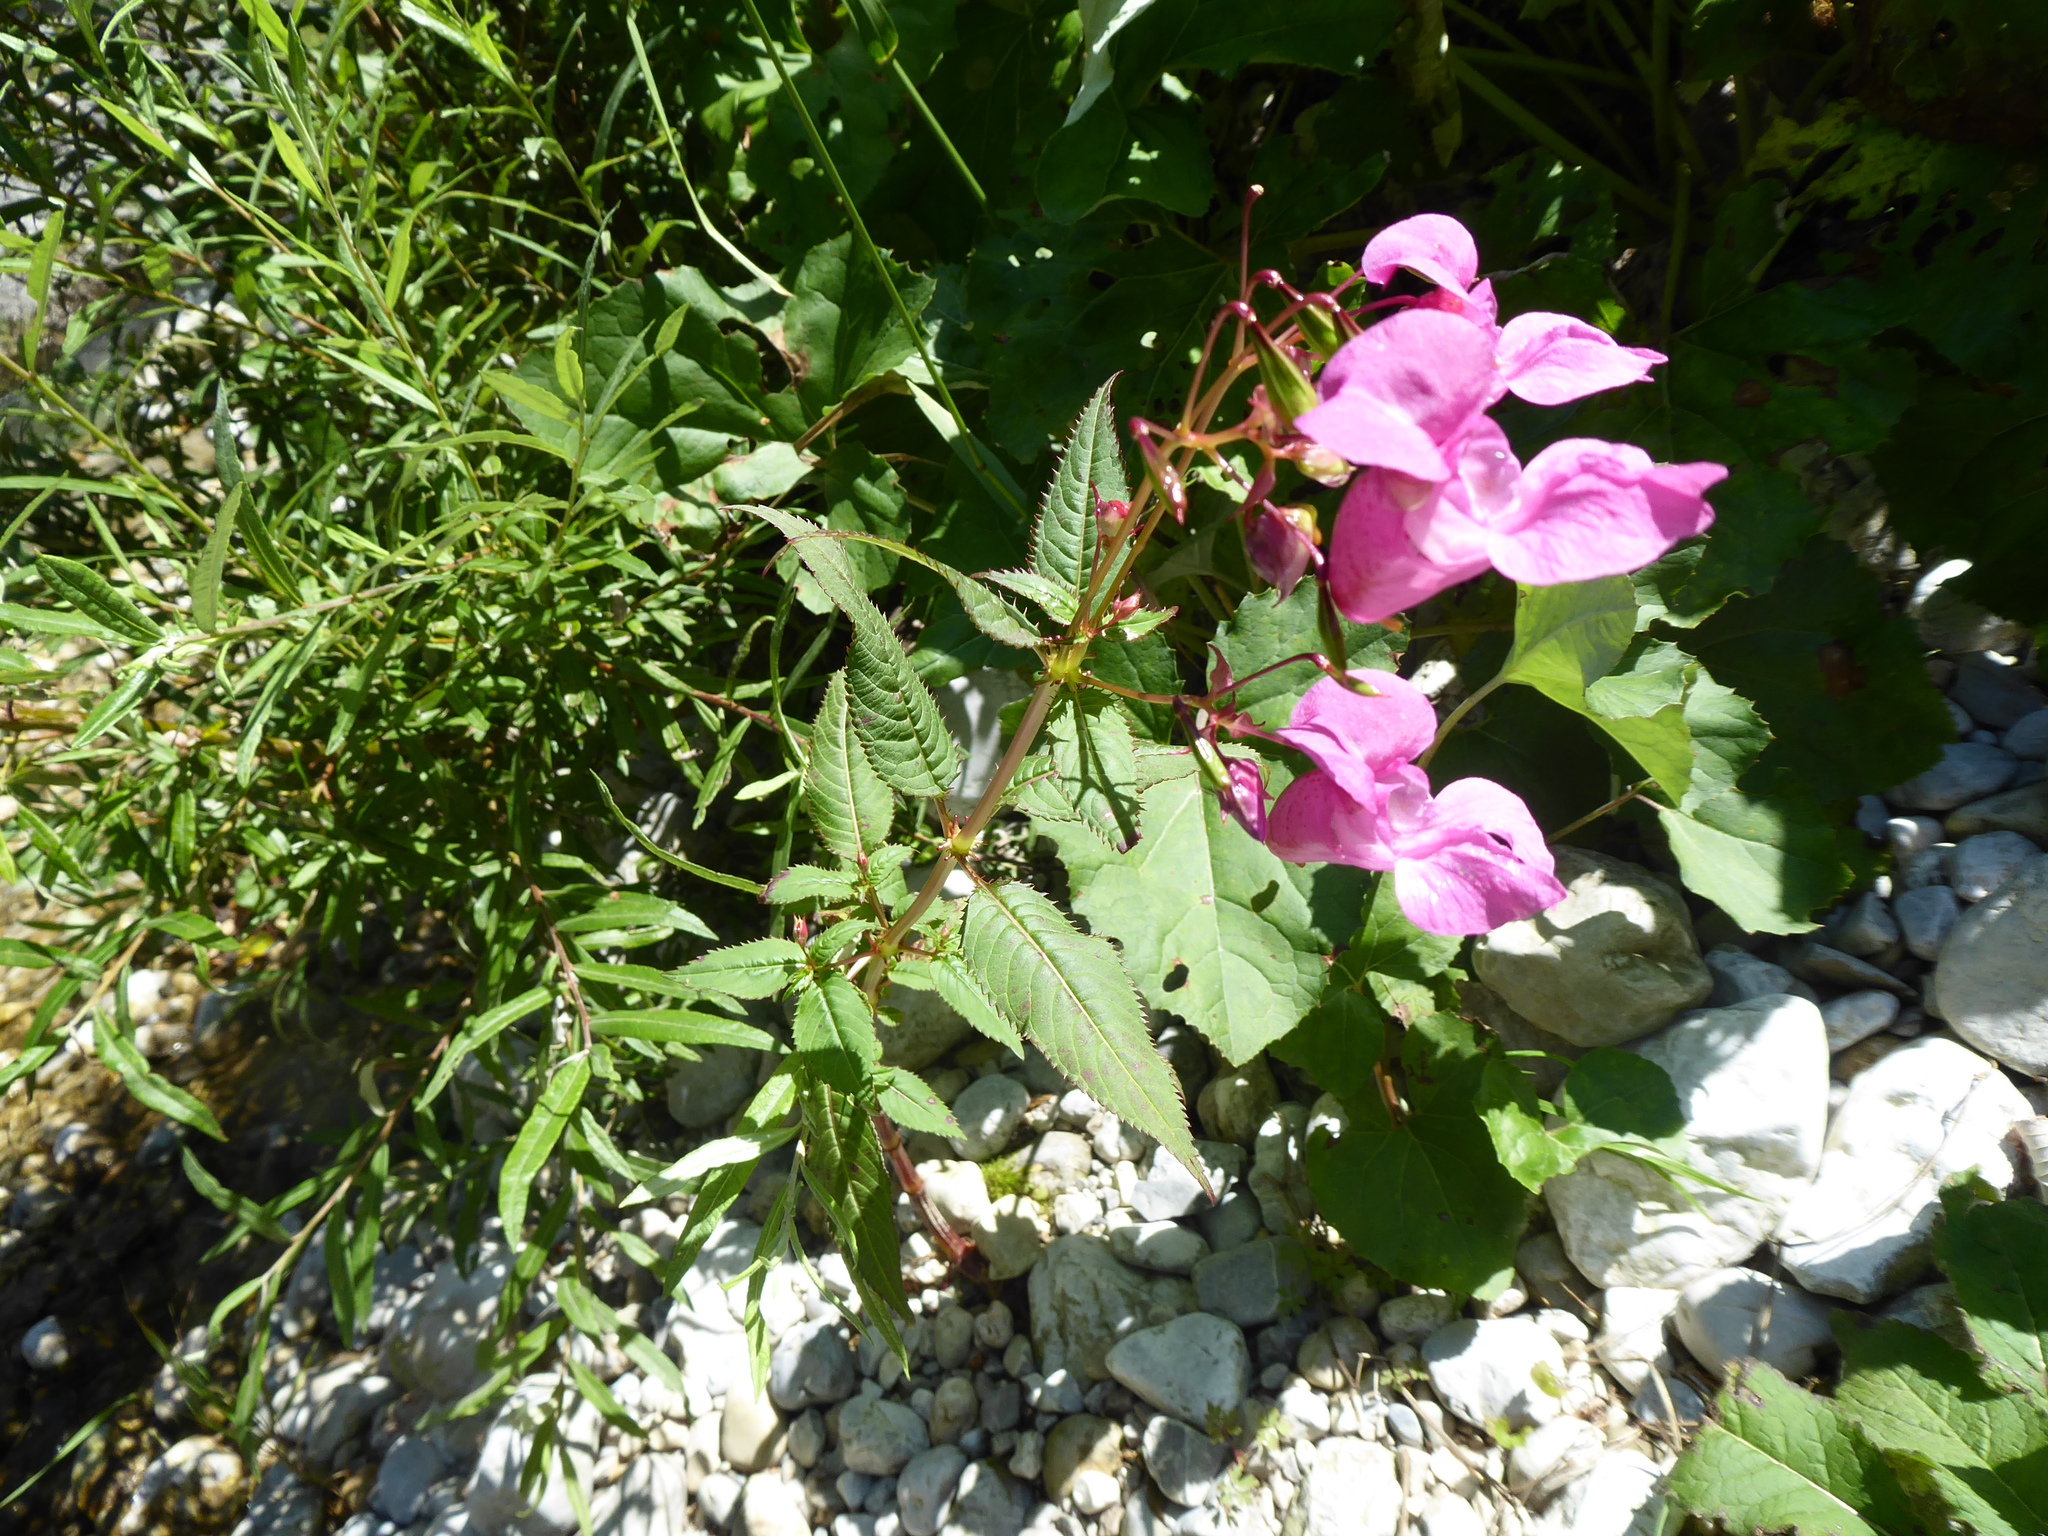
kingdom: Plantae
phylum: Tracheophyta
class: Magnoliopsida
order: Ericales
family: Balsaminaceae
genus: Impatiens
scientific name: Impatiens glandulifera
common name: Himalayan balsam
